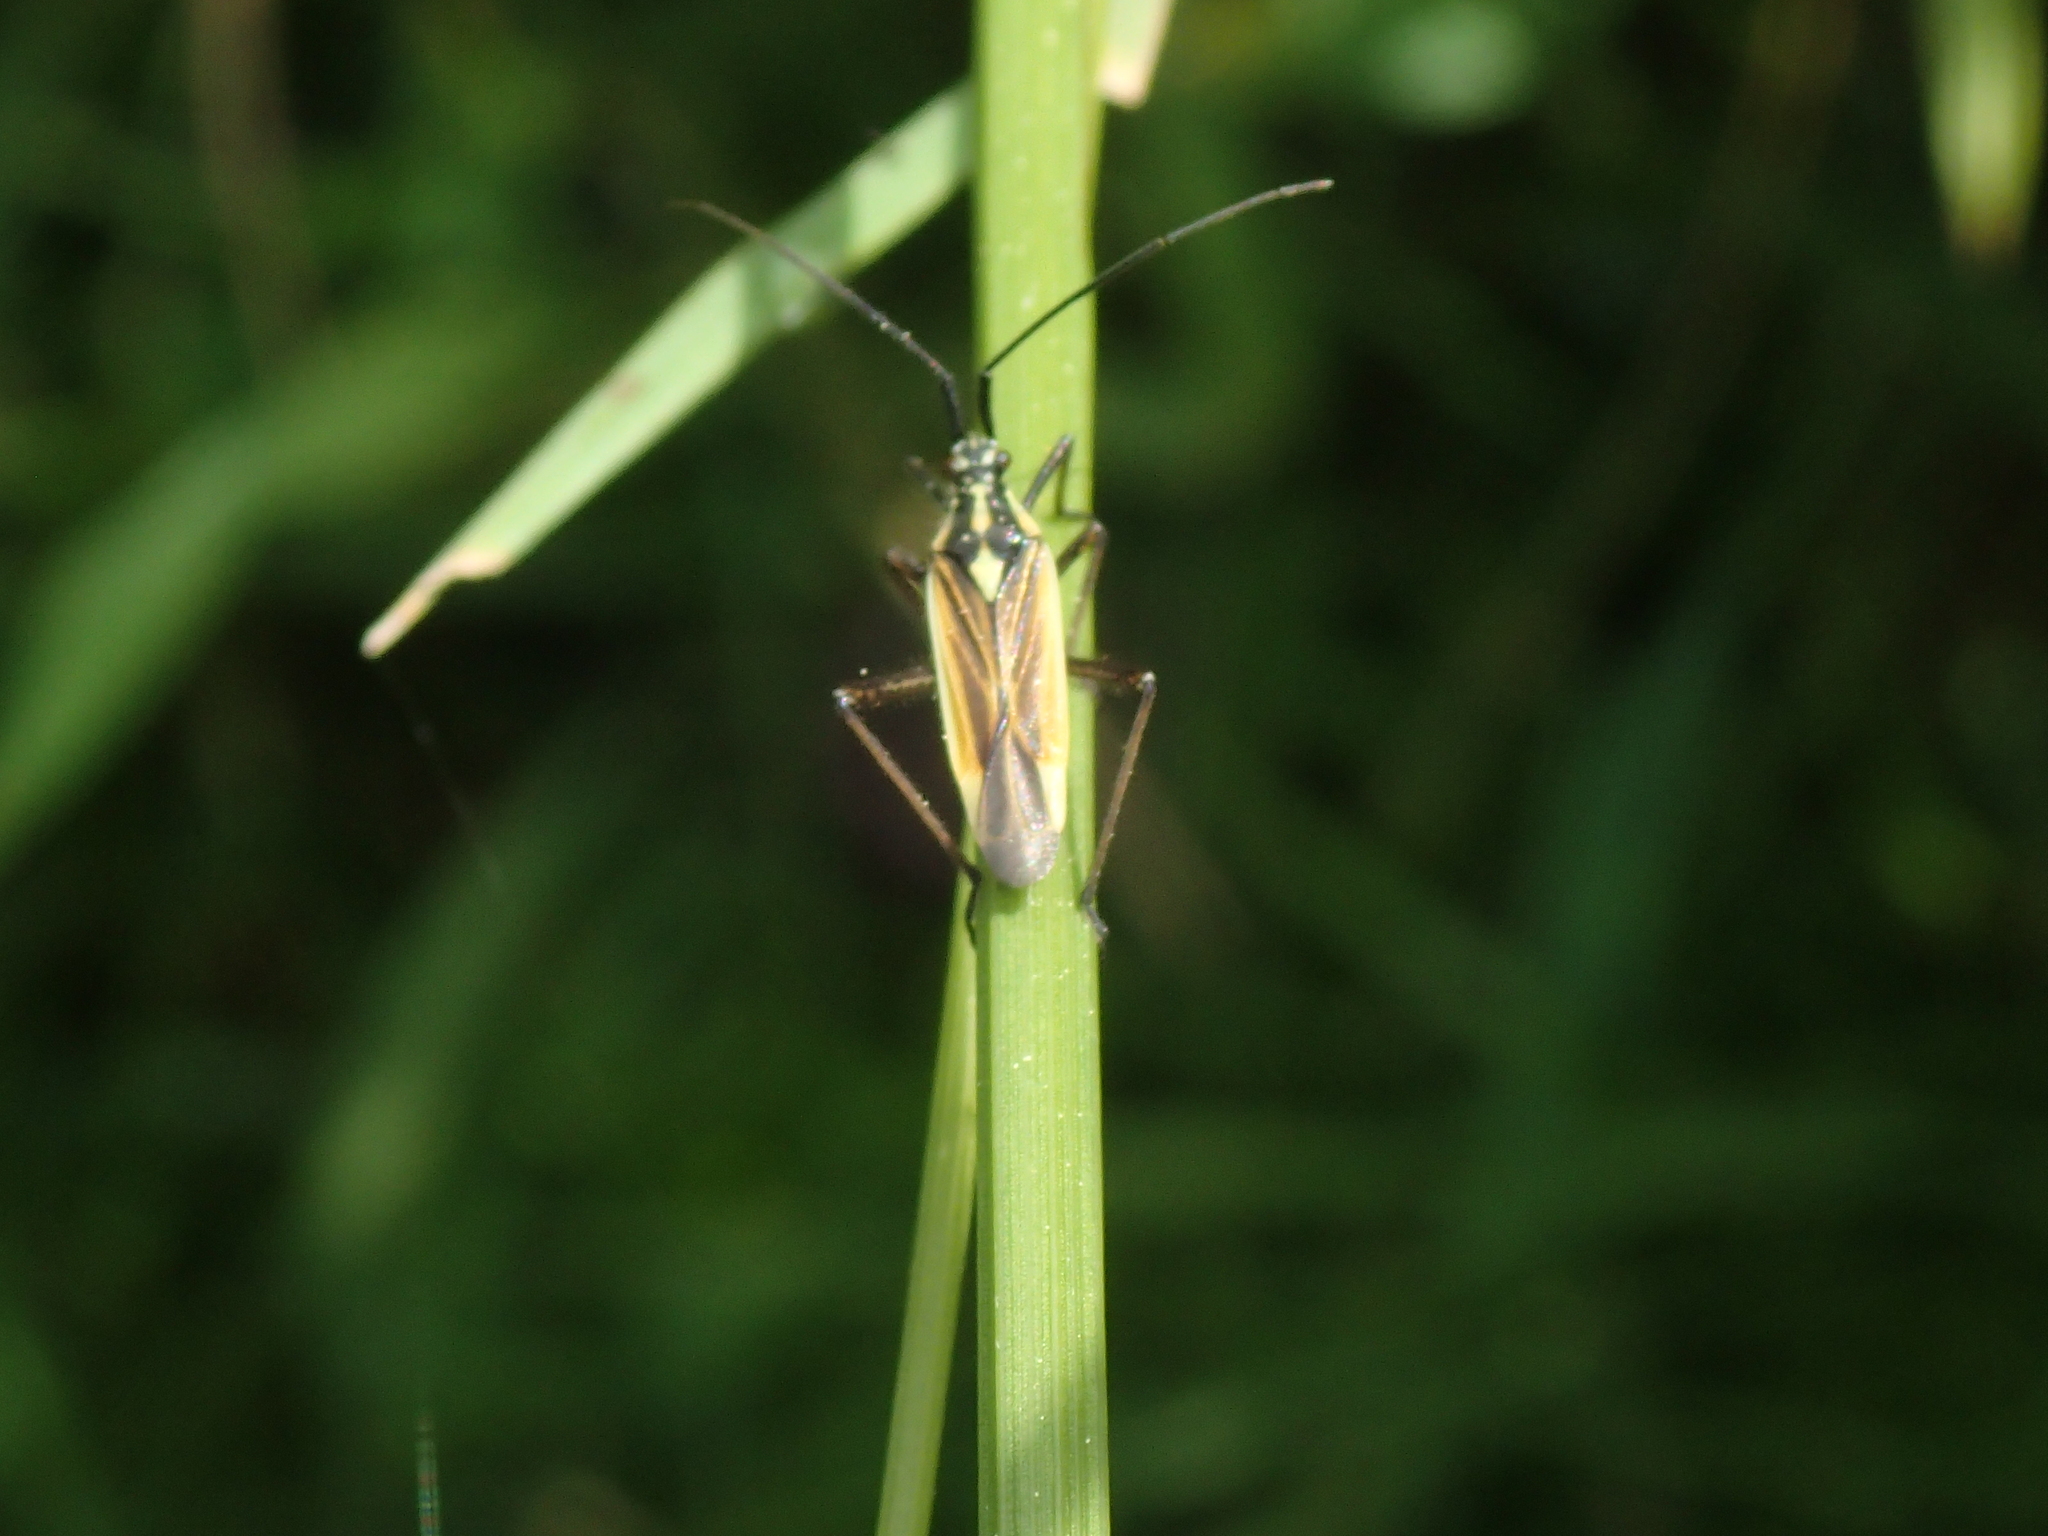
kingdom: Animalia
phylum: Arthropoda
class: Insecta
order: Hemiptera
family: Miridae
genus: Leptopterna
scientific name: Leptopterna dolabrata
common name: Meadow plant bug
